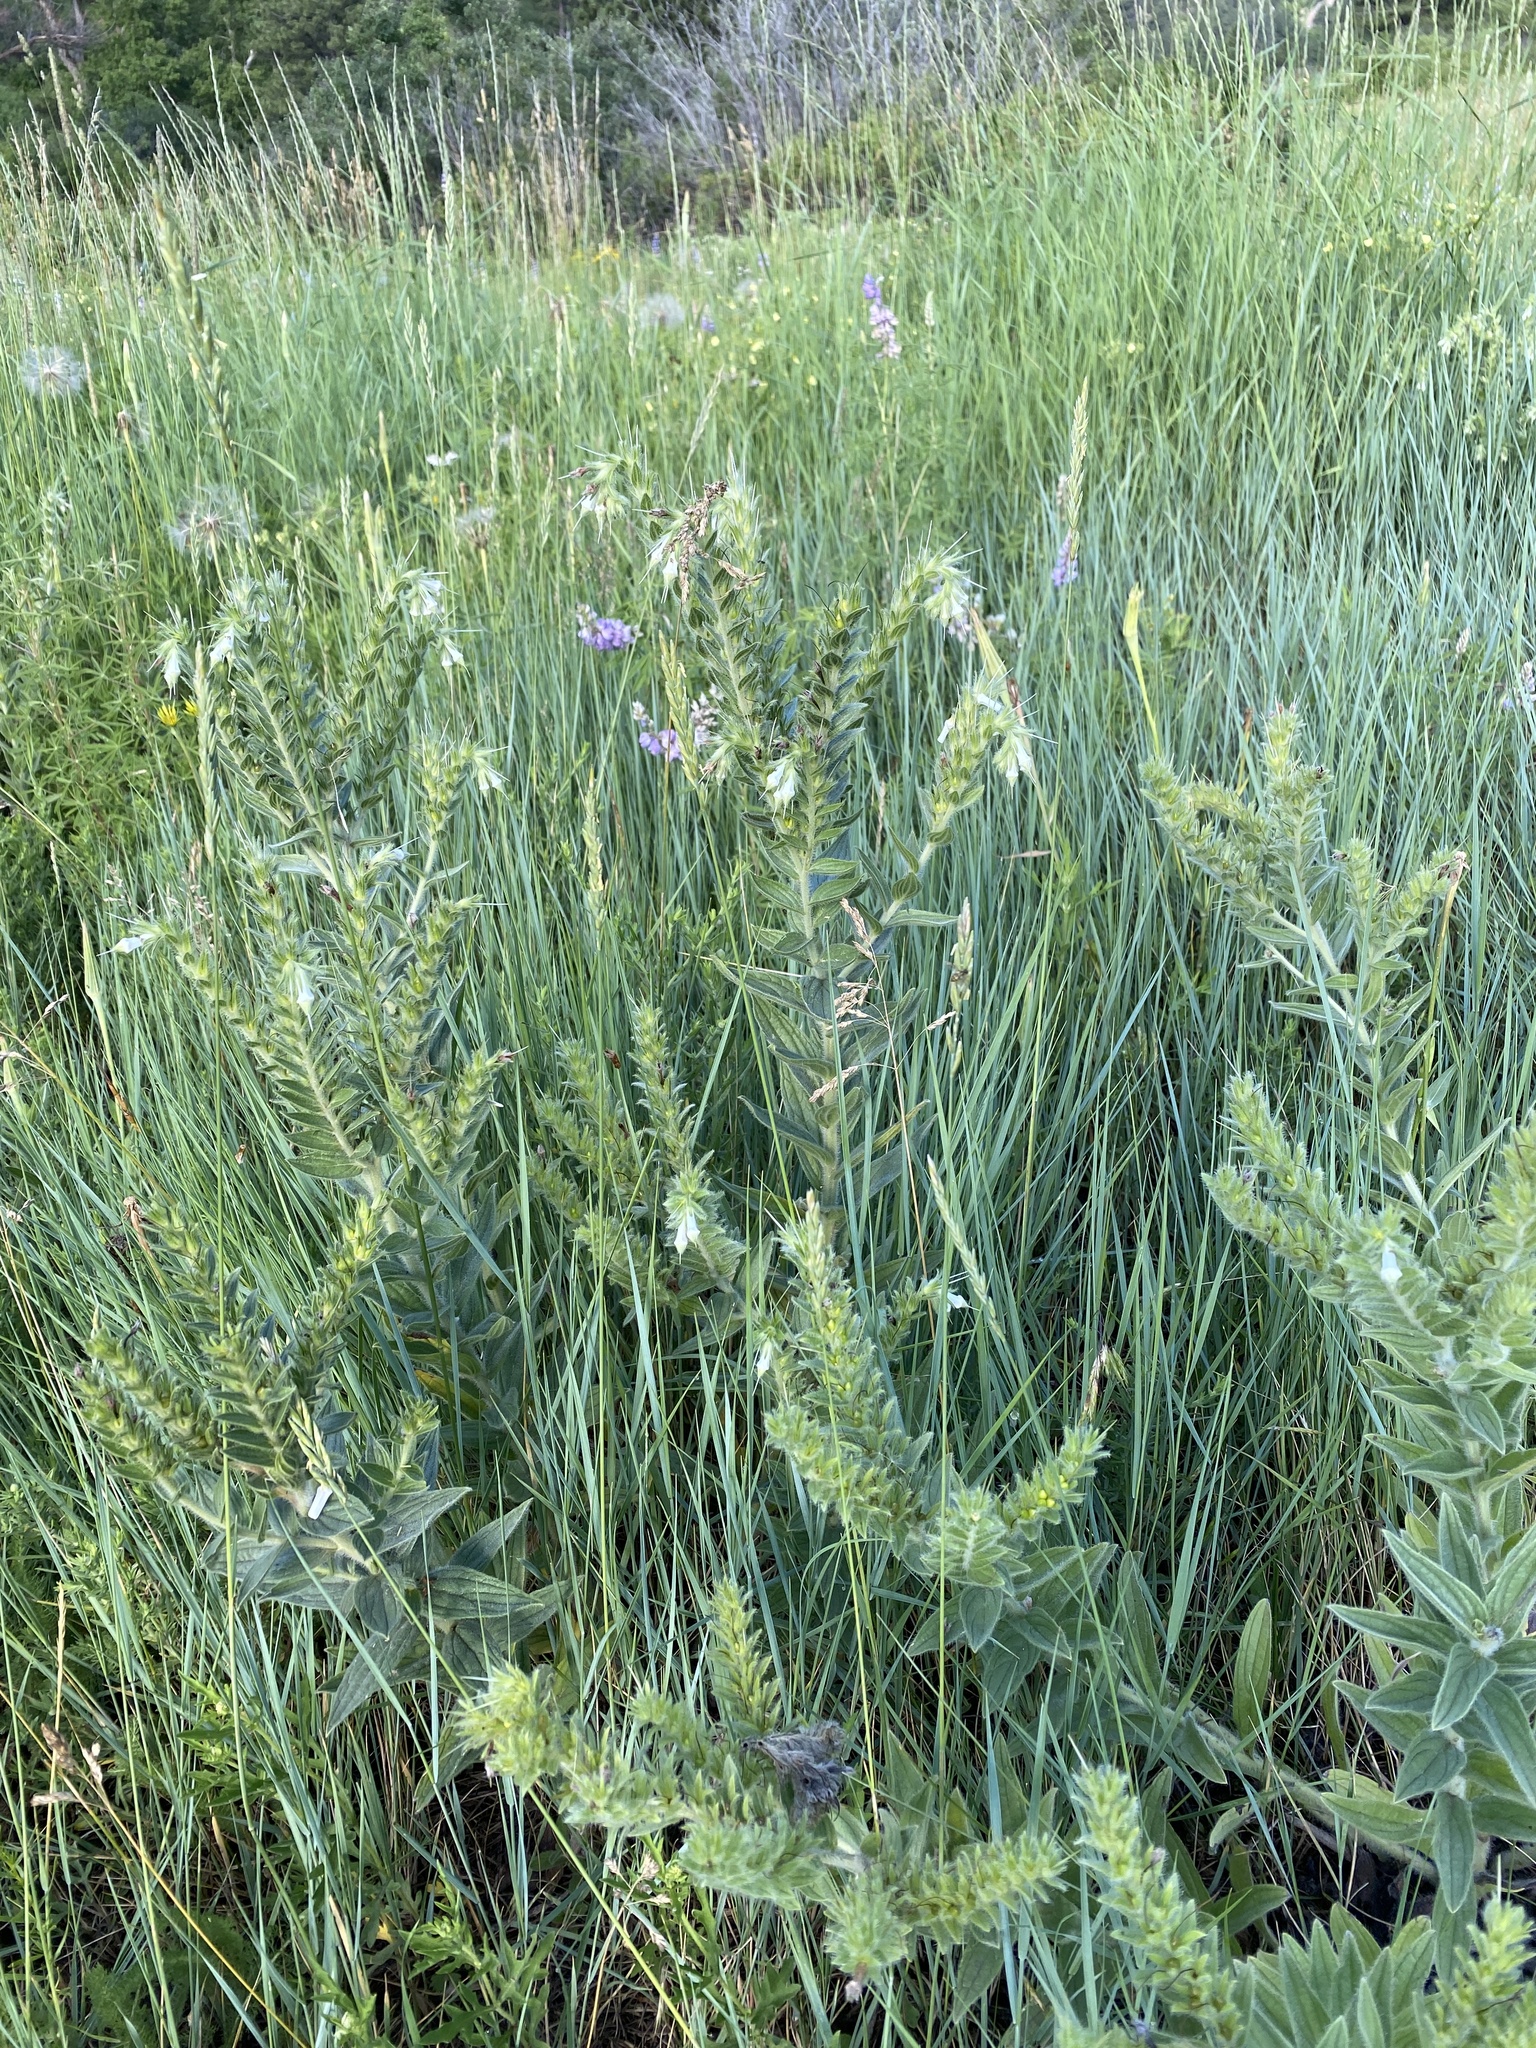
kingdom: Plantae
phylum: Tracheophyta
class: Magnoliopsida
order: Boraginales
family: Boraginaceae
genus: Lithospermum
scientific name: Lithospermum occidentale
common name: Western false gromwell
